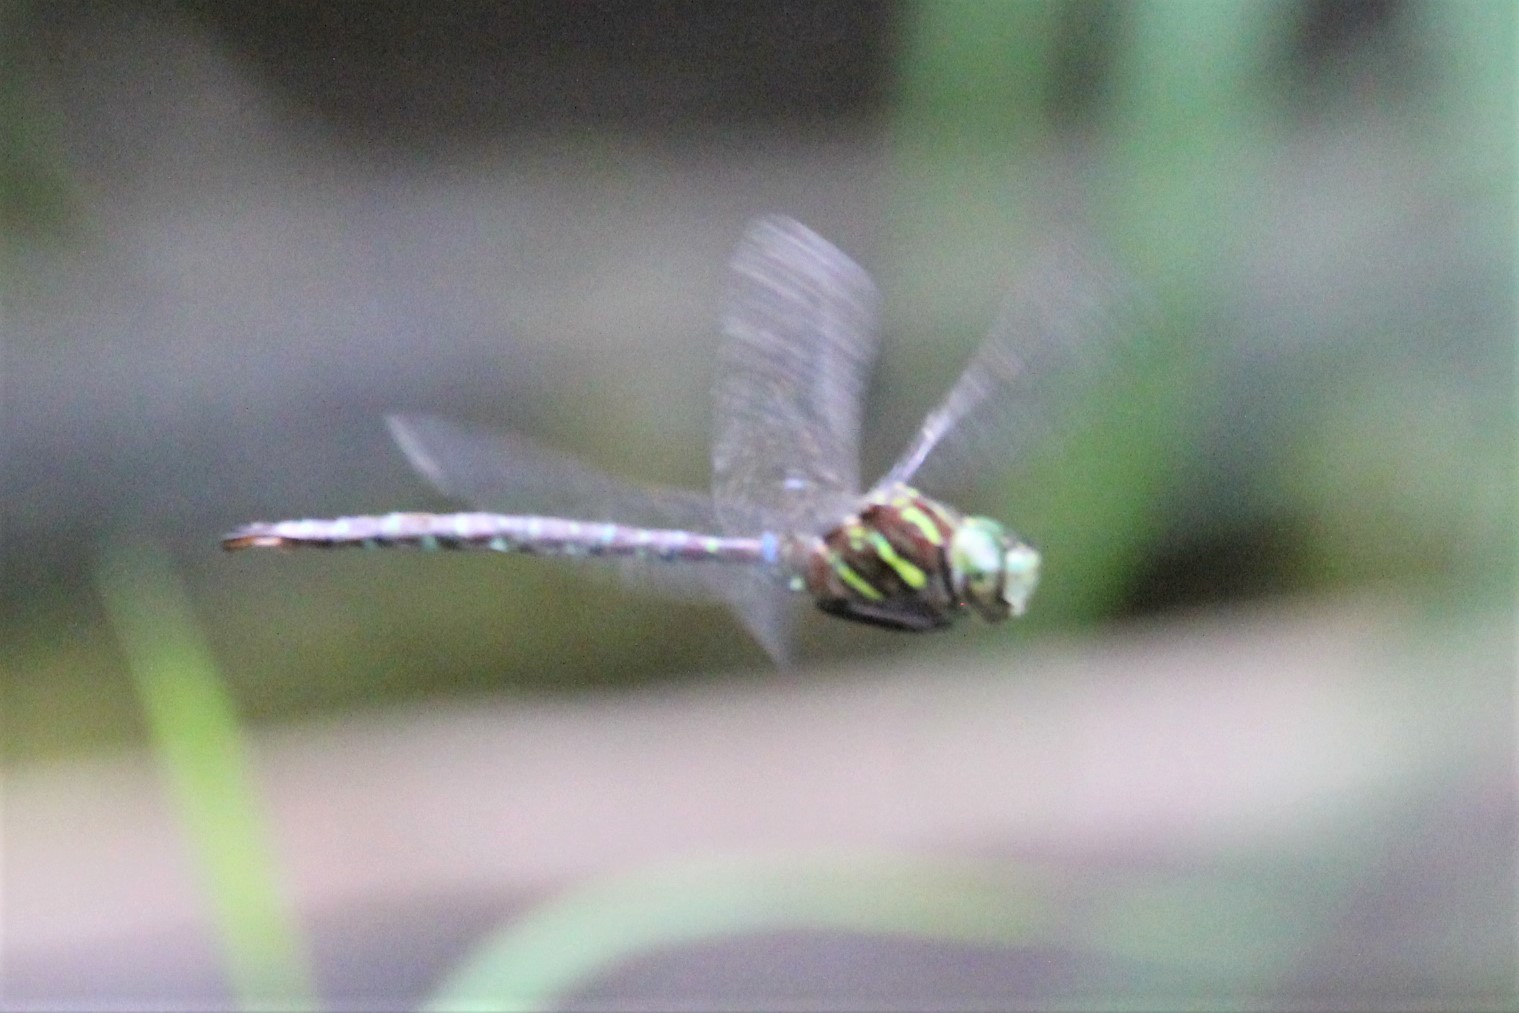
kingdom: Animalia
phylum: Arthropoda
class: Insecta
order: Odonata
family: Aeshnidae
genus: Aeshna
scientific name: Aeshna umbrosa
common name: Shadow darner
